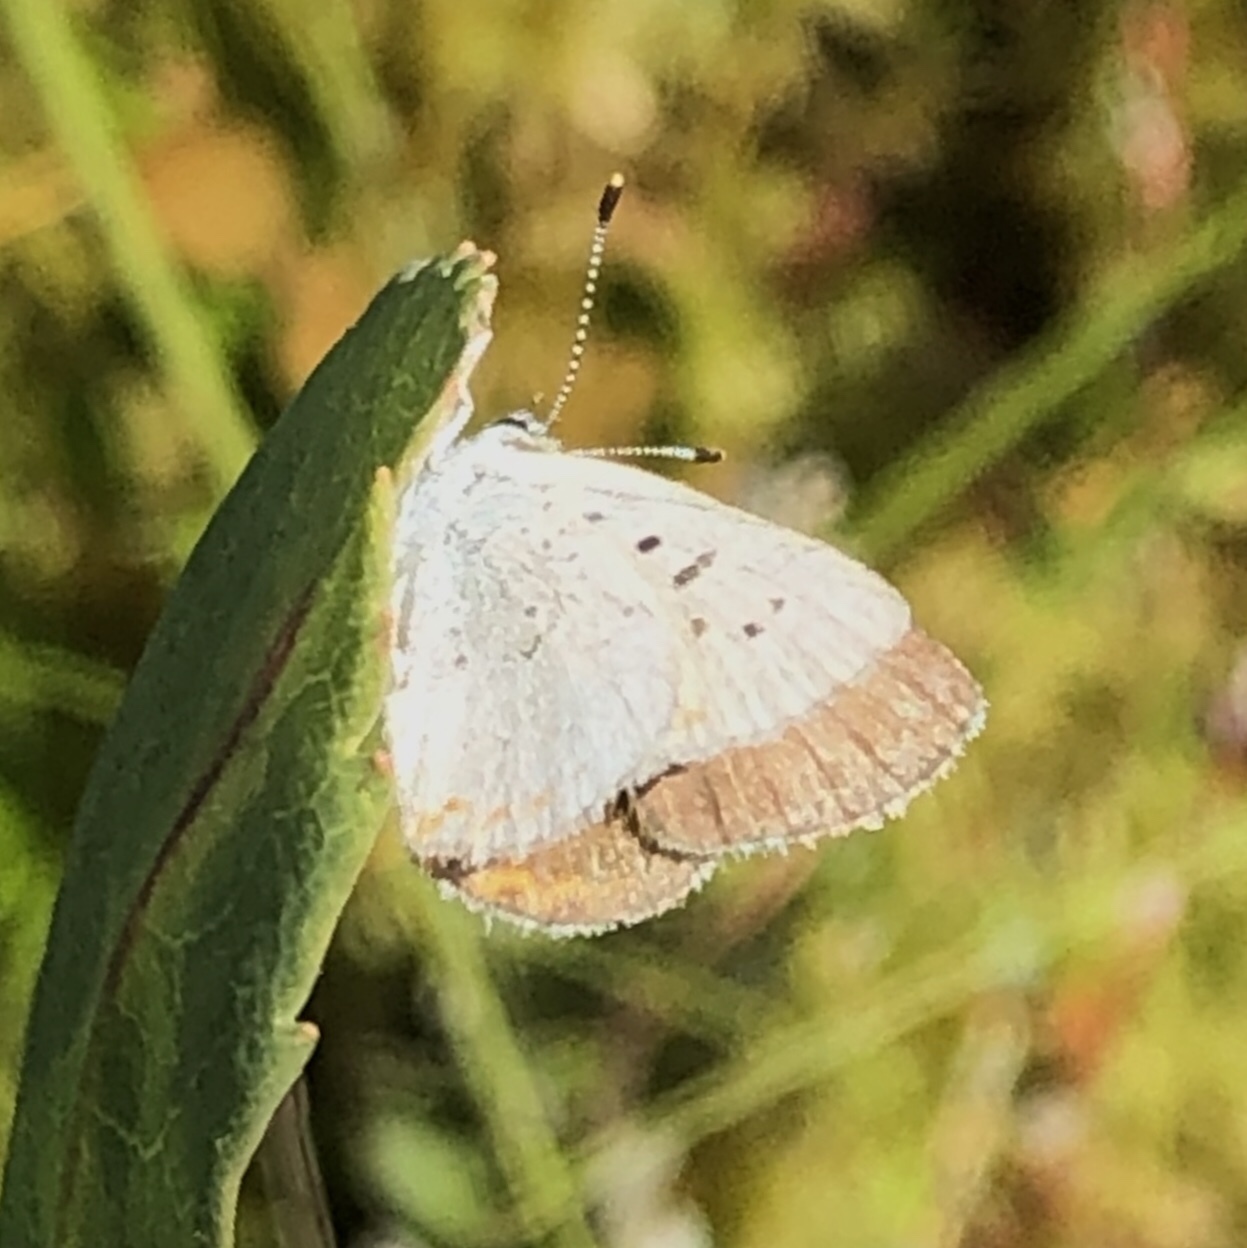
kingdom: Animalia
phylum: Arthropoda
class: Insecta
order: Lepidoptera
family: Lycaenidae
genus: Tharsalea
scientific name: Tharsalea epixanthe
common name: Bog copper
